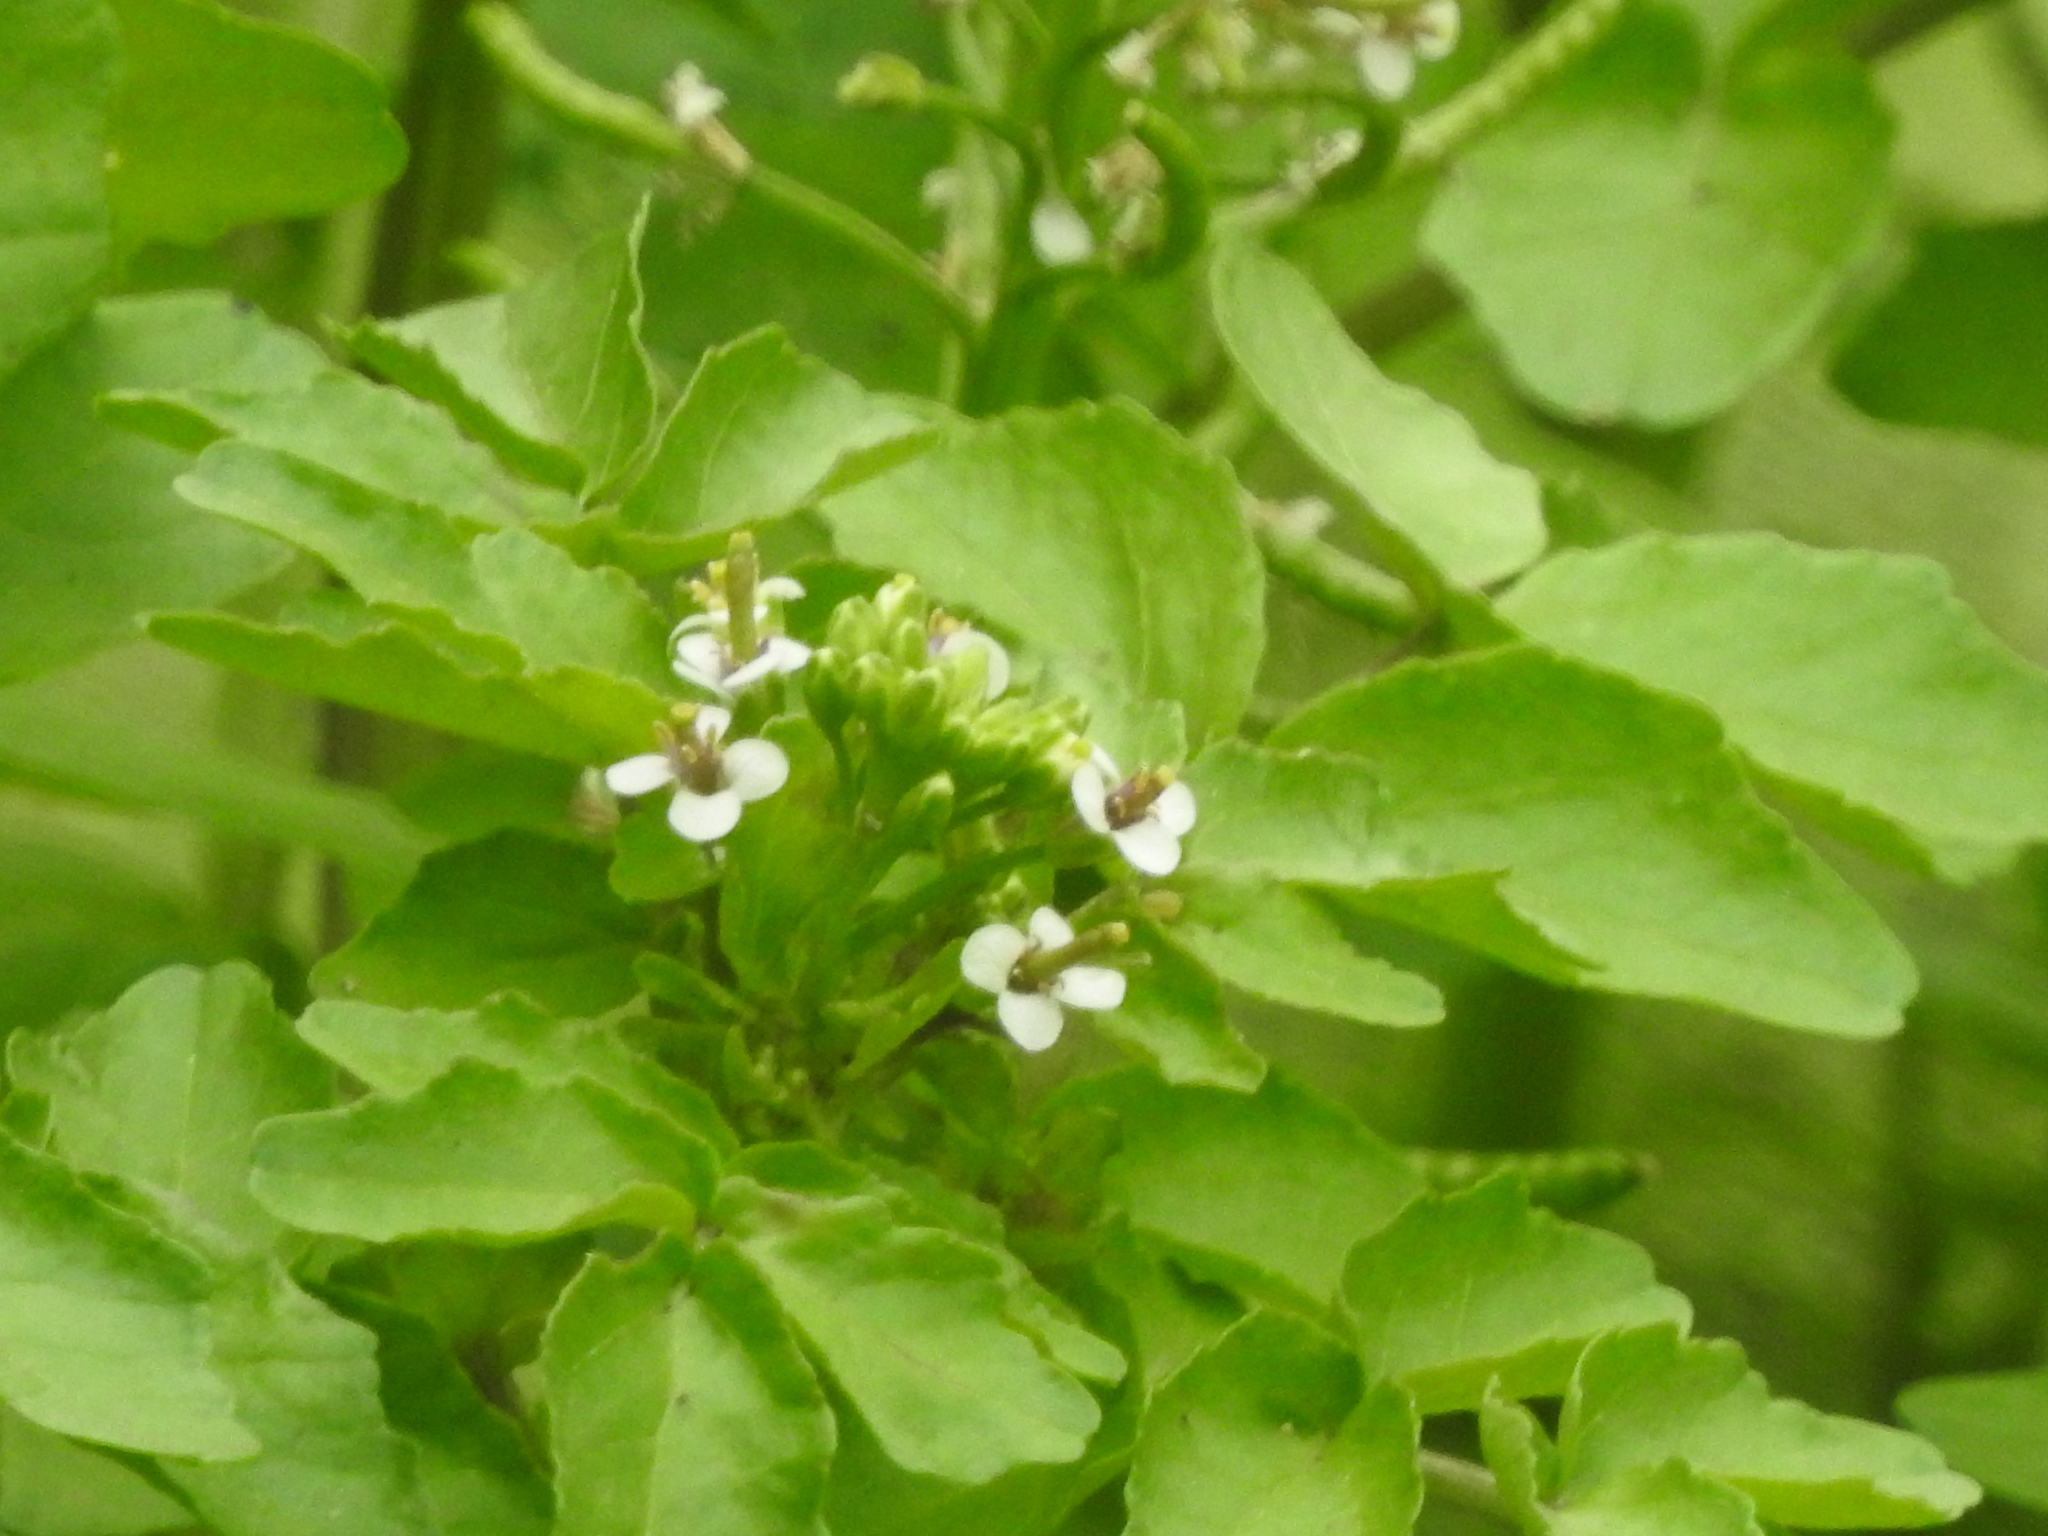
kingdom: Plantae
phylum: Tracheophyta
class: Magnoliopsida
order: Brassicales
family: Brassicaceae
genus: Nasturtium
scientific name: Nasturtium officinale
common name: Watercress
